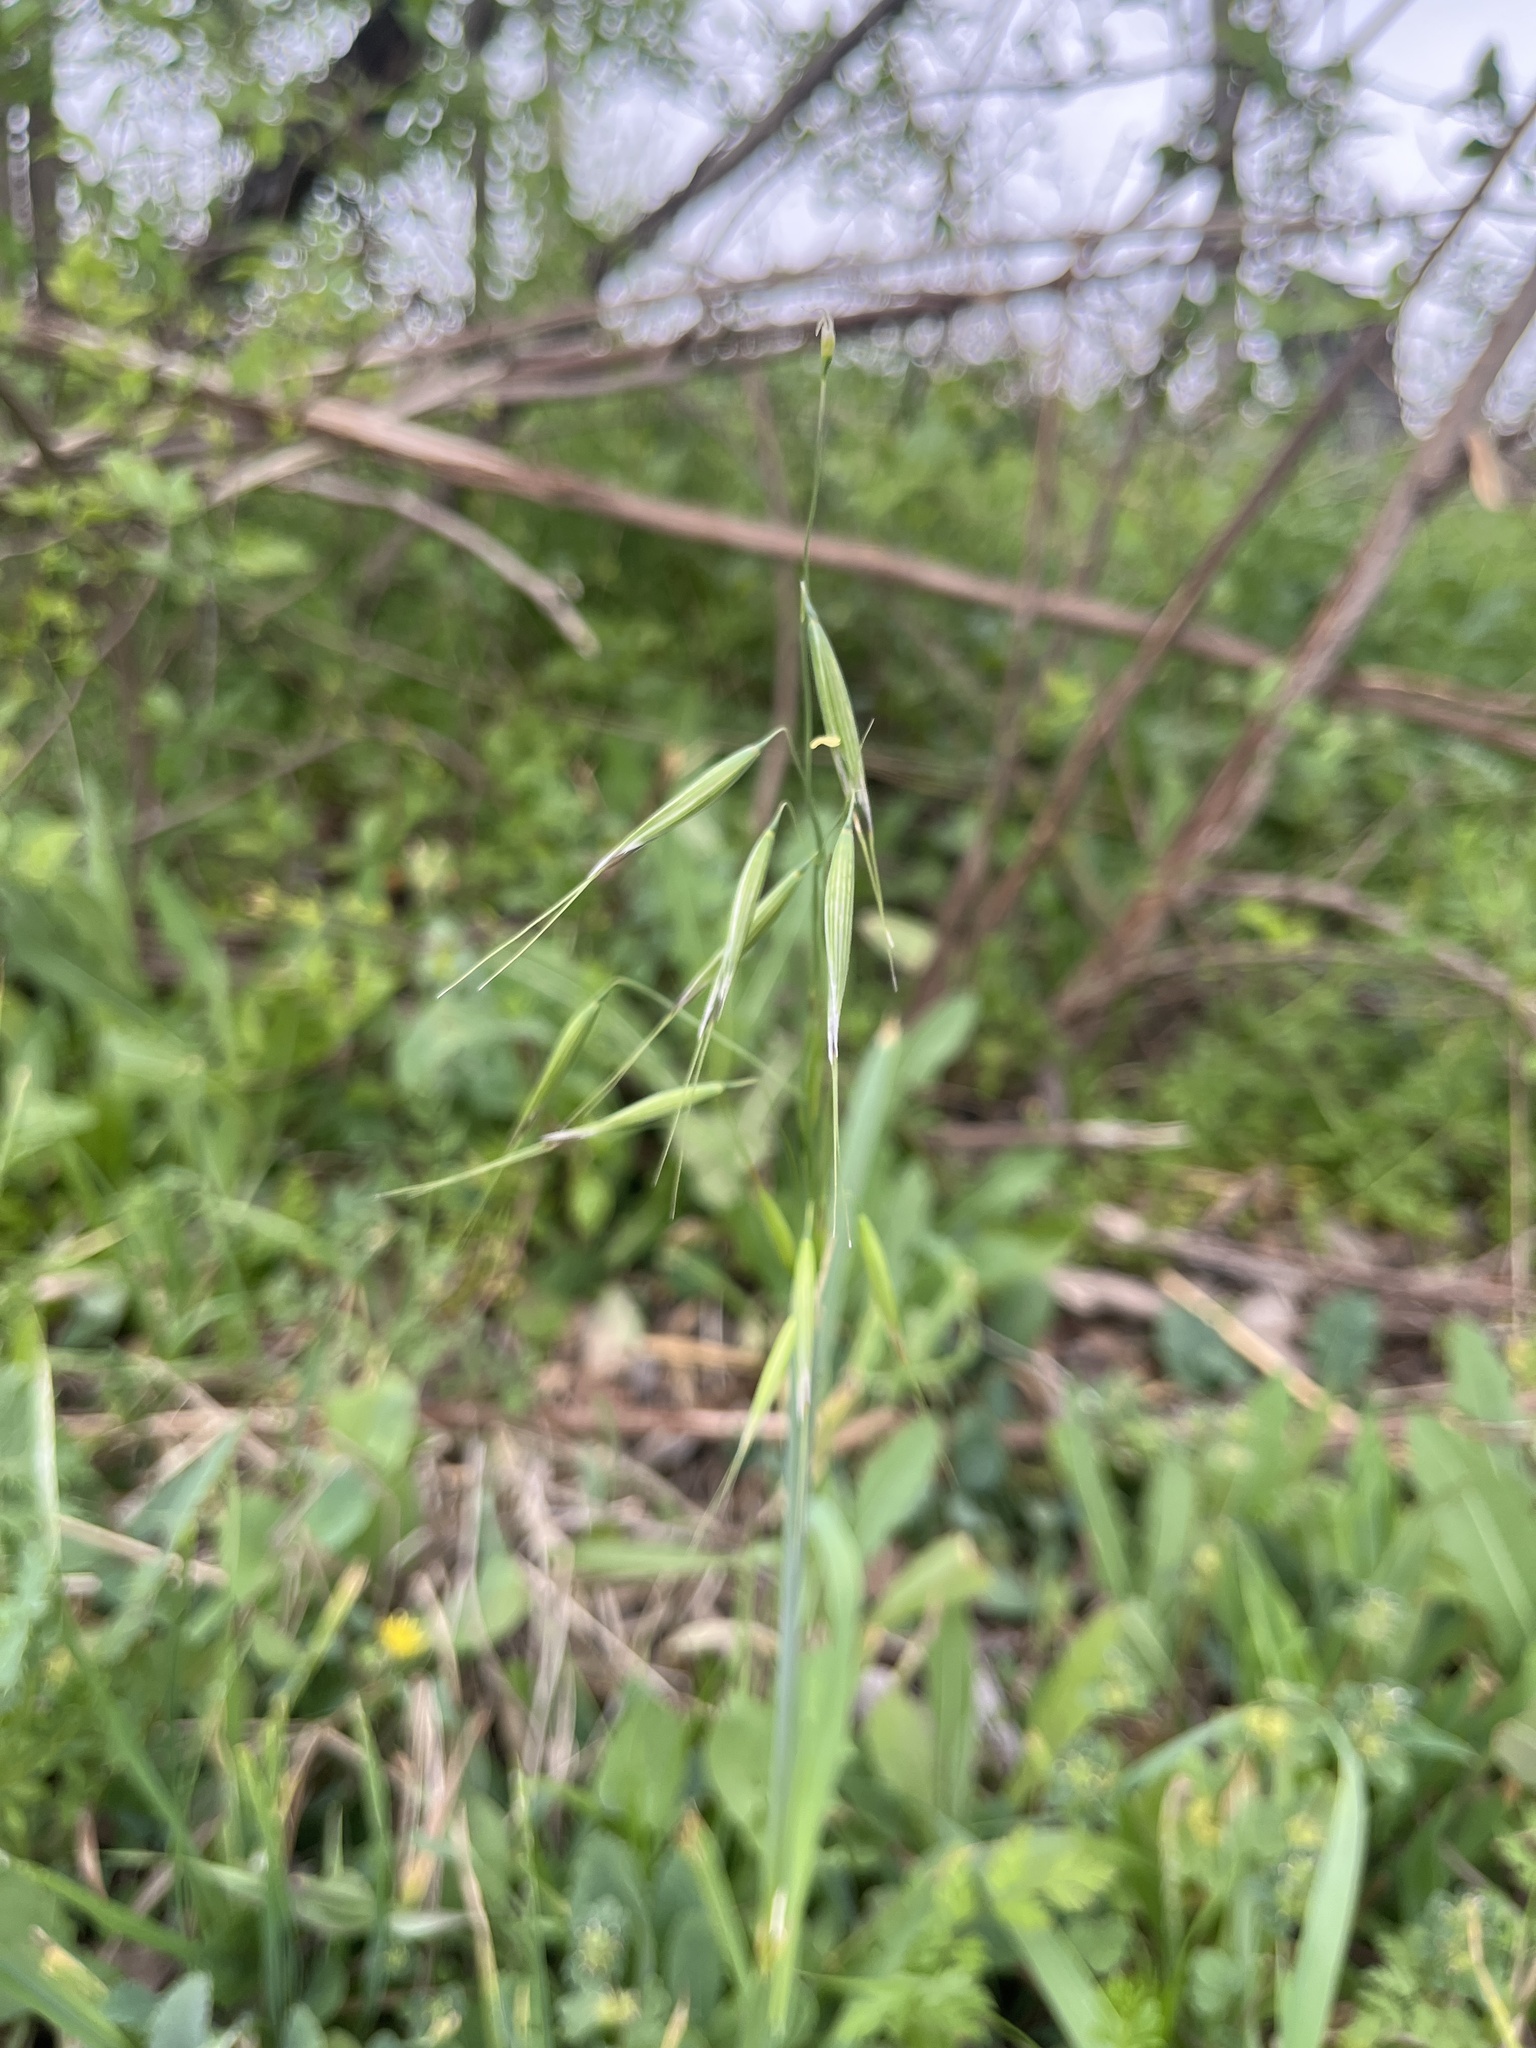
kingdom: Plantae
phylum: Tracheophyta
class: Liliopsida
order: Poales
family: Poaceae
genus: Avena
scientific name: Avena fatua
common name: Wild oat
